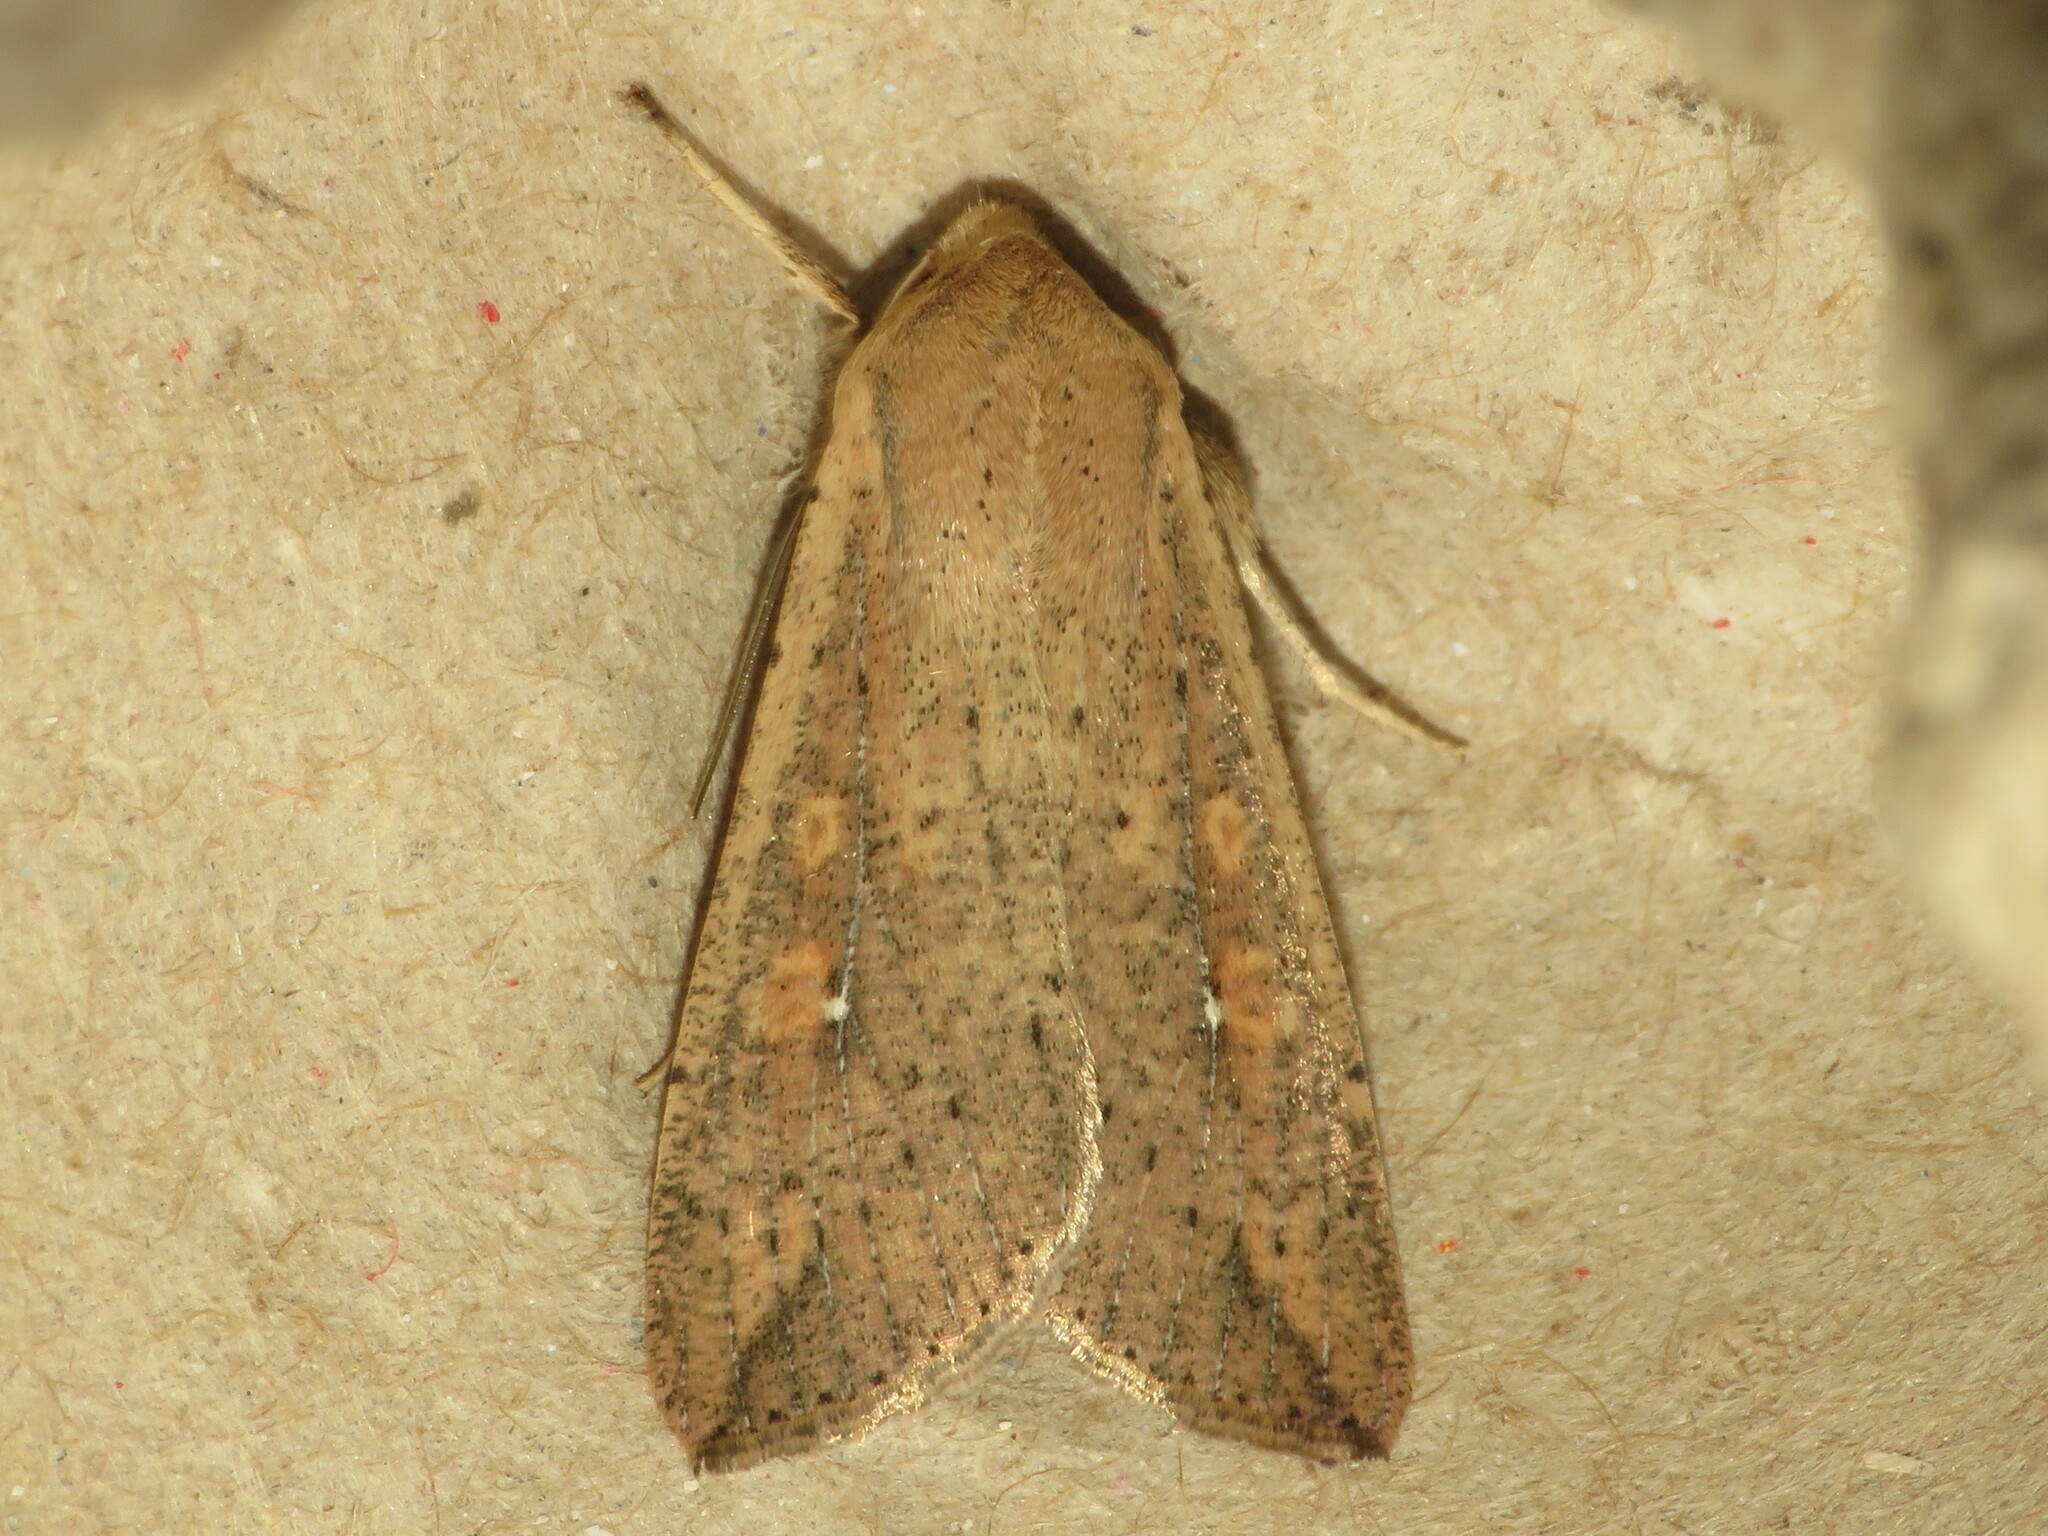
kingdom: Animalia
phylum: Arthropoda
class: Insecta
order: Lepidoptera
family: Noctuidae
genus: Mythimna
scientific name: Mythimna unipuncta
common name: White-speck
